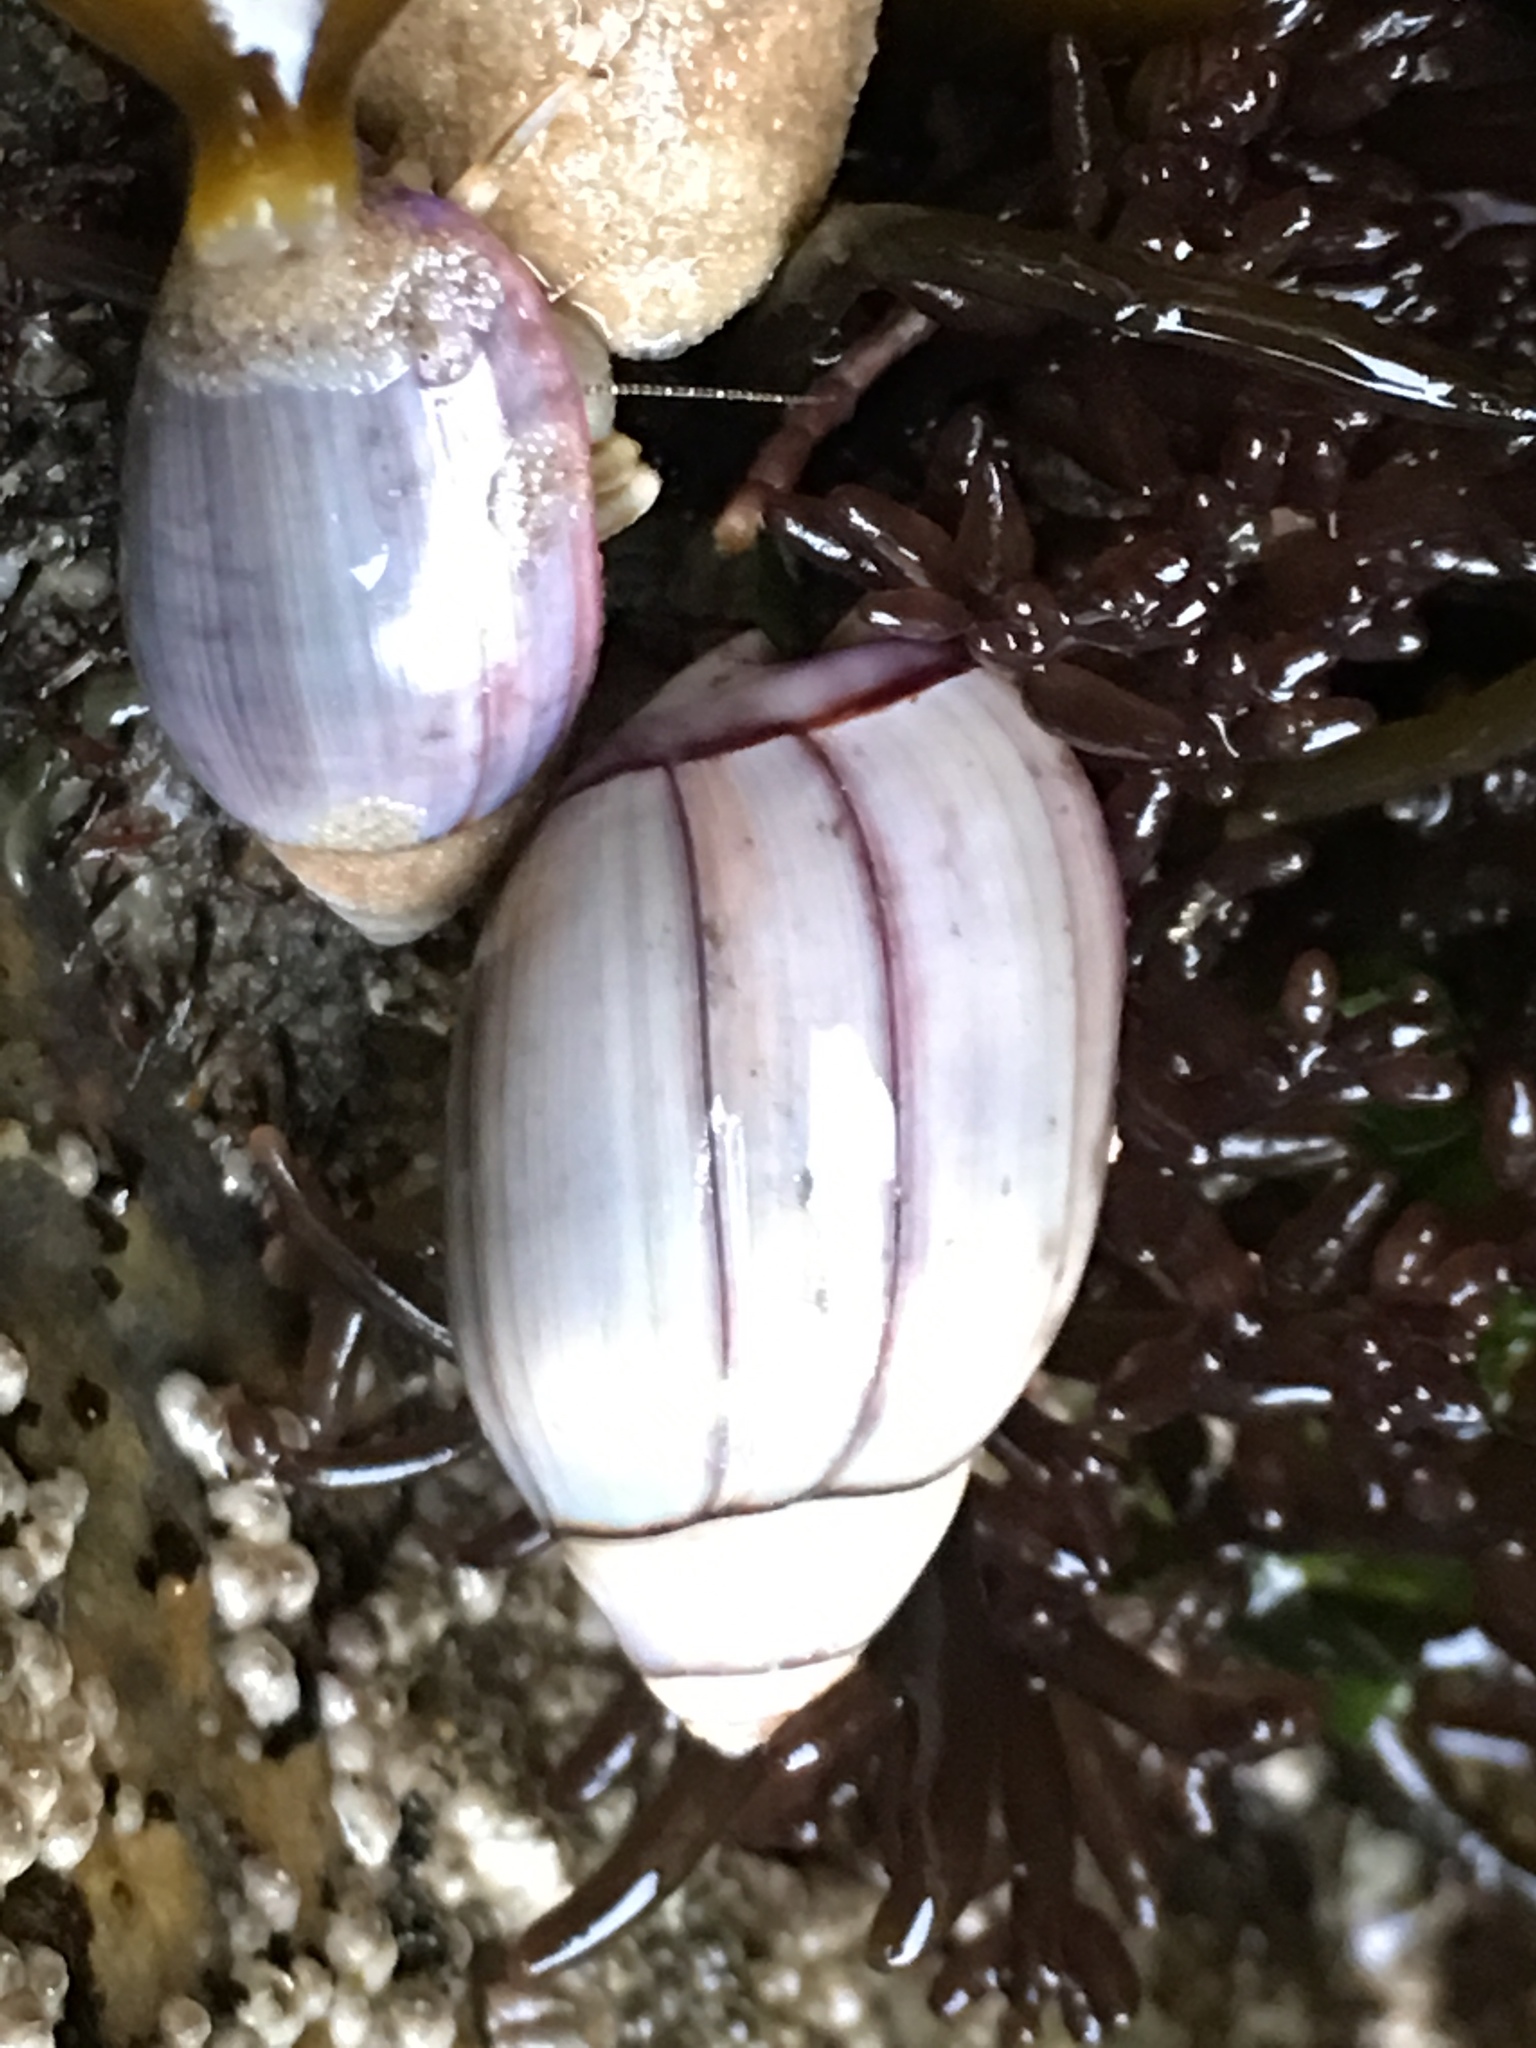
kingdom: Animalia
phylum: Mollusca
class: Gastropoda
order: Neogastropoda
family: Olividae
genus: Callianax
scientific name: Callianax biplicata
